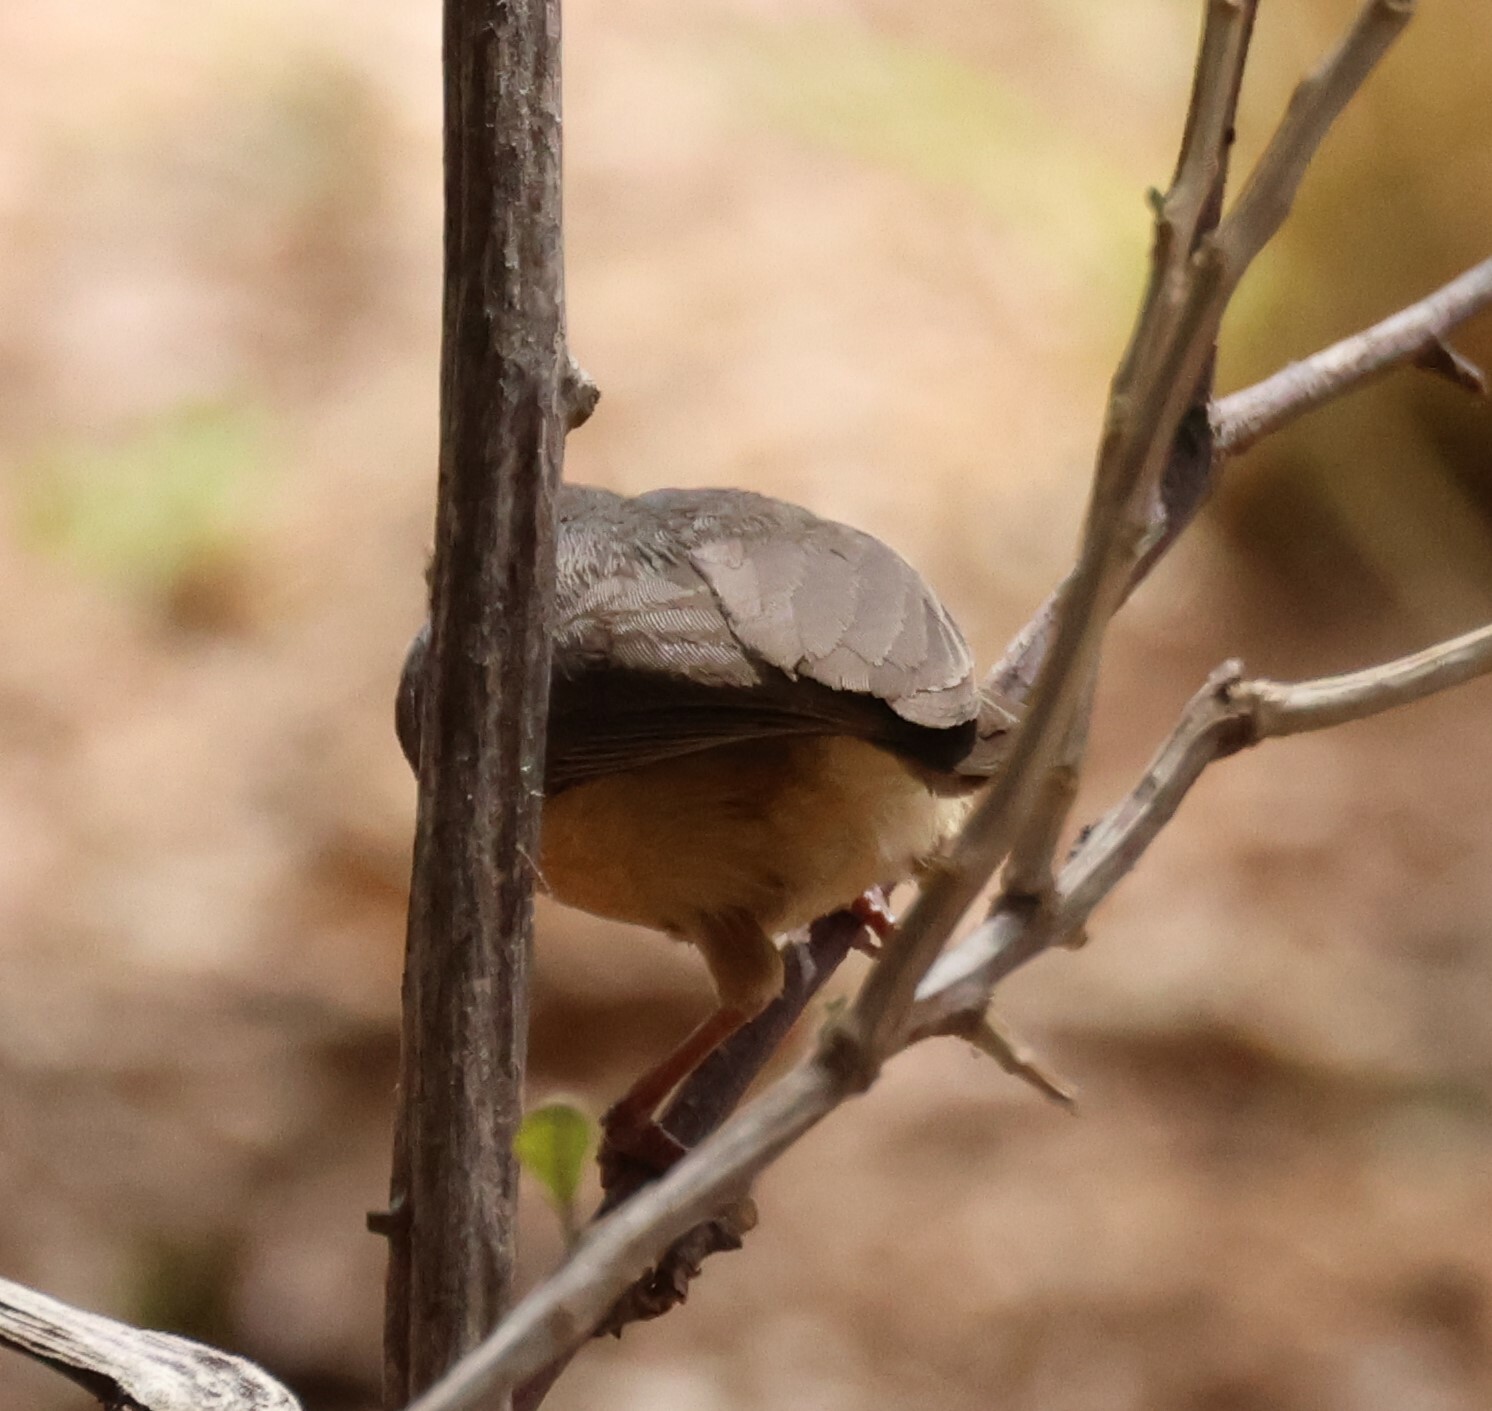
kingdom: Animalia
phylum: Chordata
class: Aves
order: Passeriformes
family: Macrosphenidae
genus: Sylvietta
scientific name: Sylvietta rufescens
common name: Long-billed crombec
